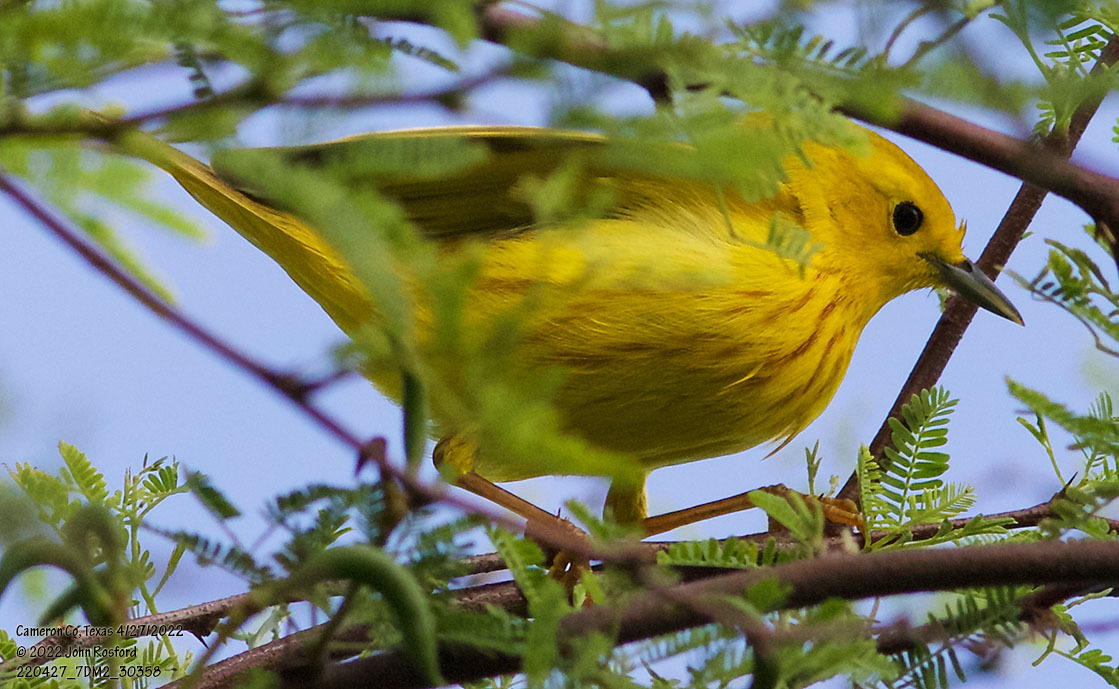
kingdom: Animalia
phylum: Chordata
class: Aves
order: Passeriformes
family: Parulidae
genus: Setophaga
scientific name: Setophaga petechia
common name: Yellow warbler
